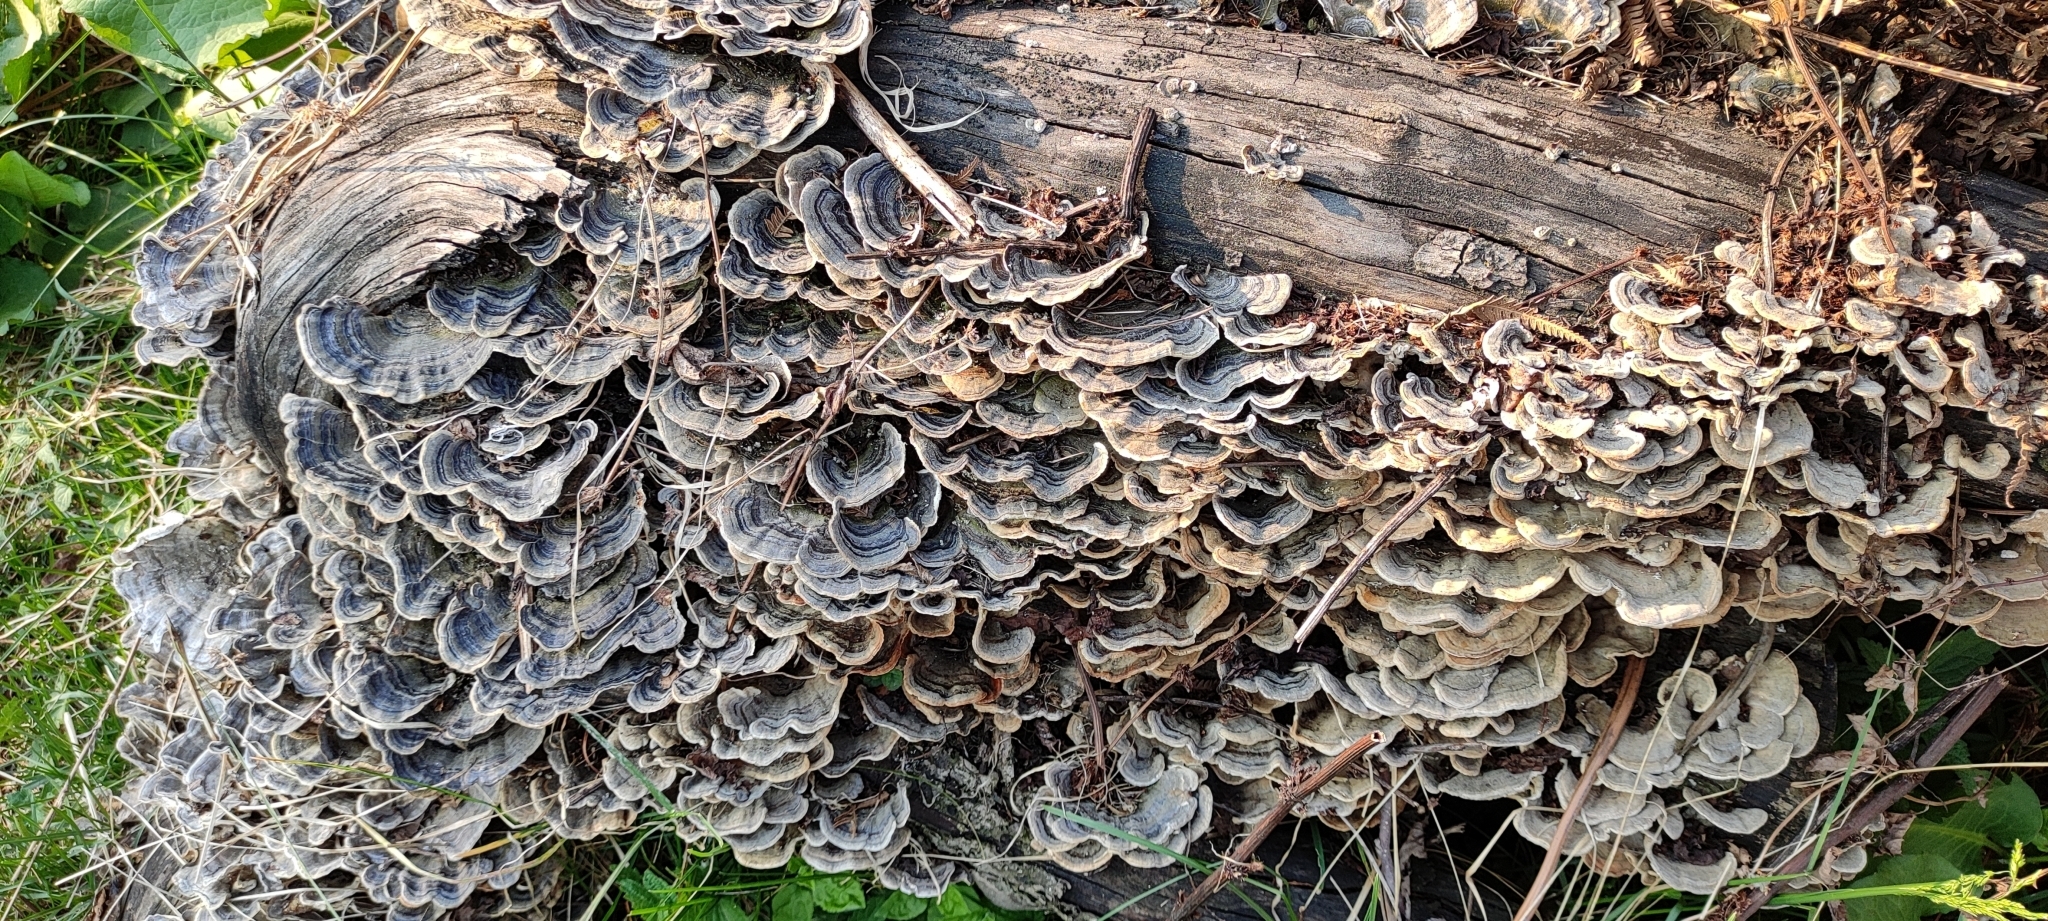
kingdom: Fungi
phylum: Basidiomycota
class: Agaricomycetes
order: Polyporales
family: Polyporaceae
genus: Trametes
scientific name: Trametes versicolor
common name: Turkeytail
